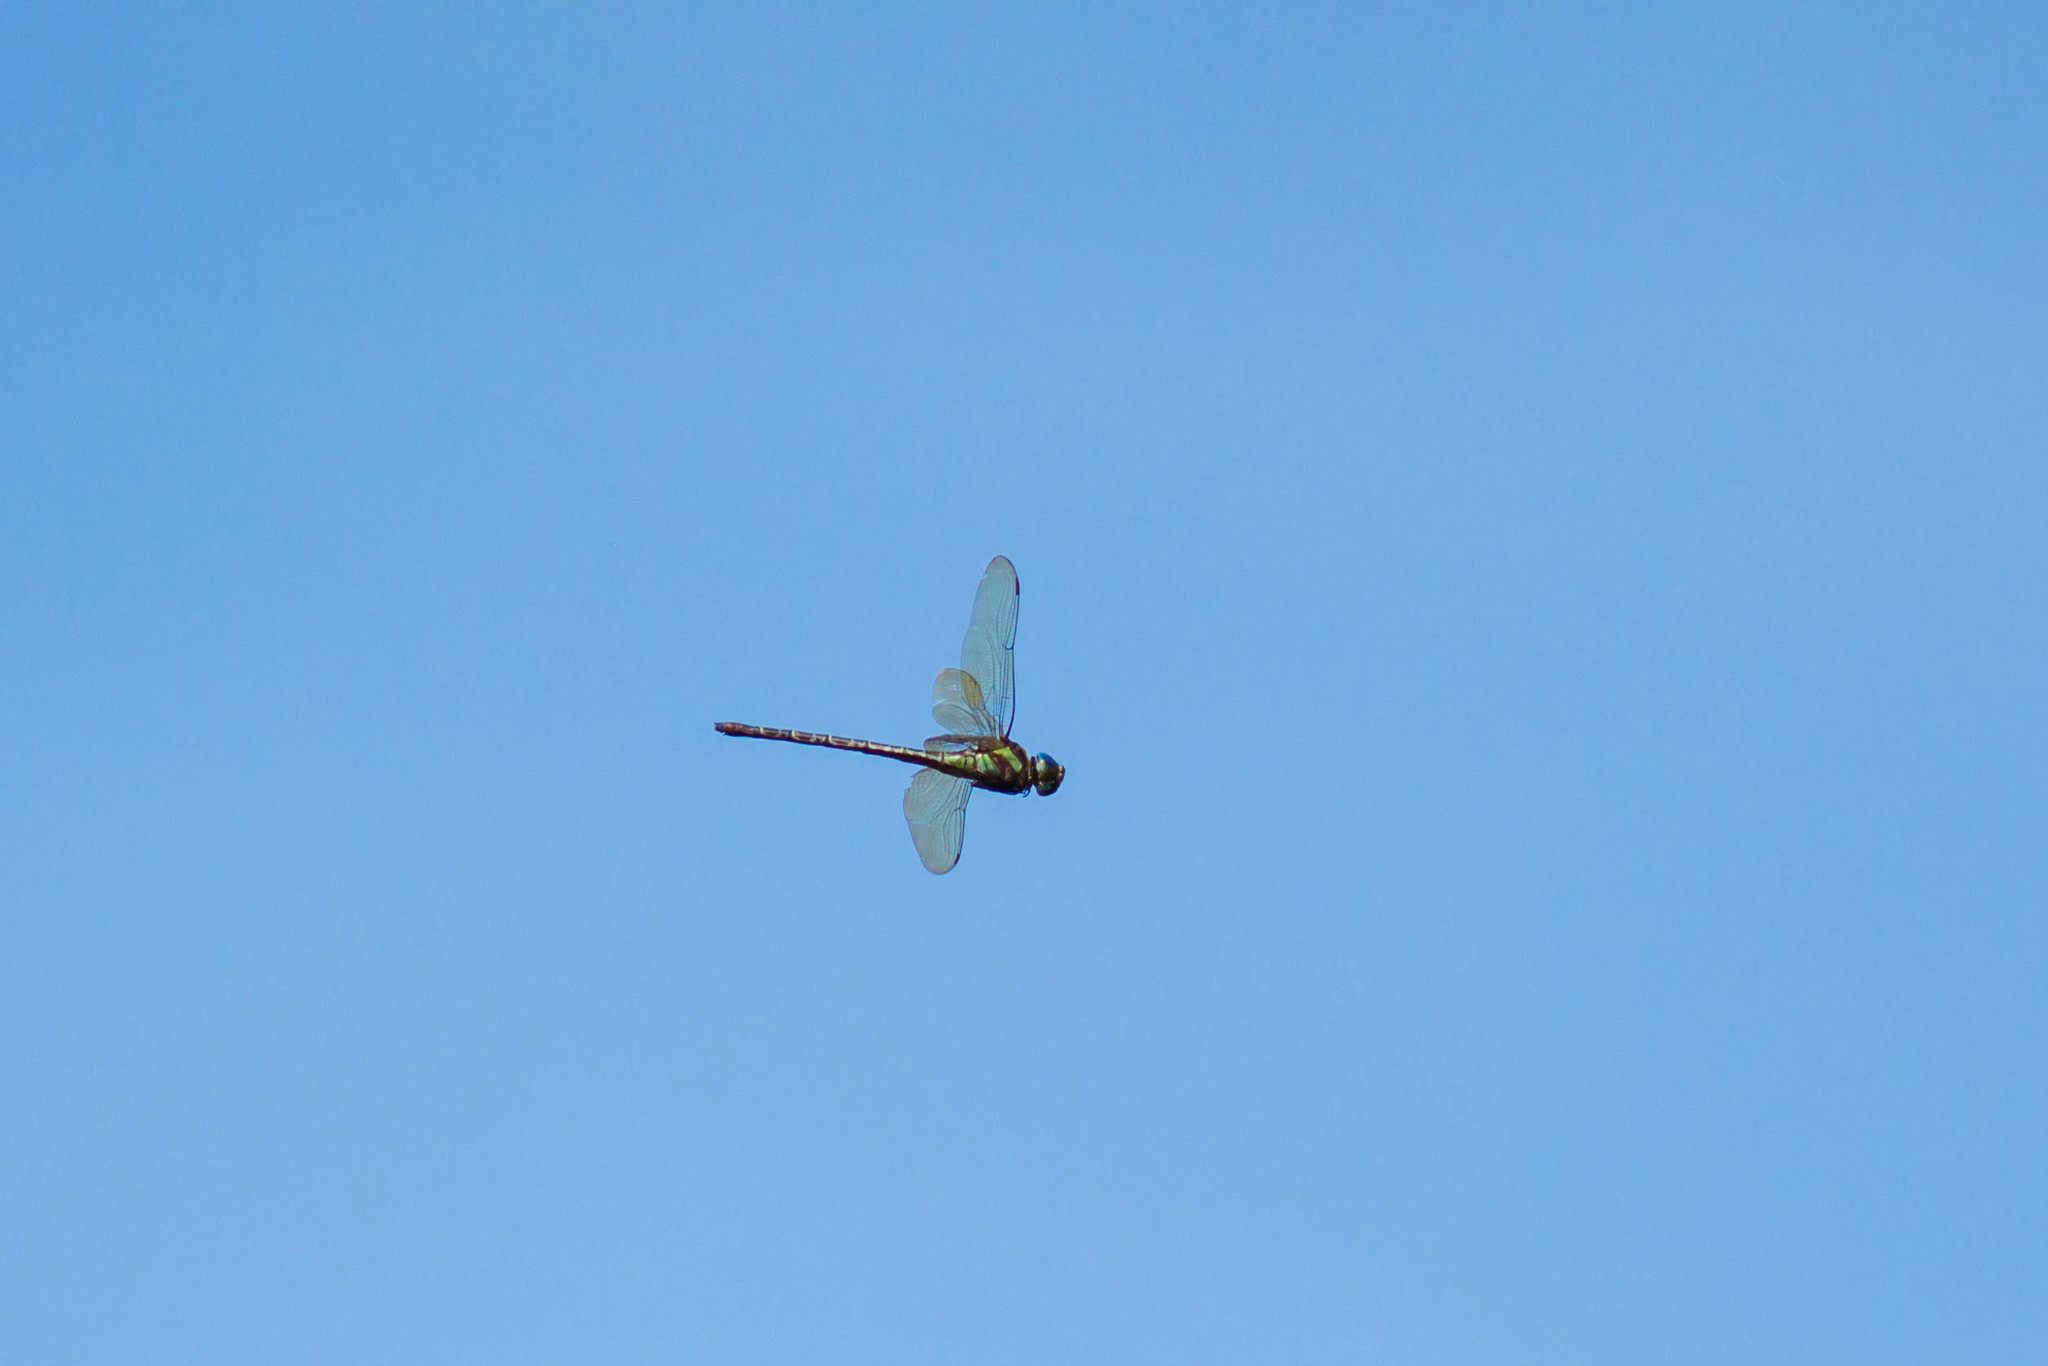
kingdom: Animalia
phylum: Arthropoda
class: Insecta
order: Odonata
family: Aeshnidae
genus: Coryphaeschna
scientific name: Coryphaeschna ingens
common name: Regal darner
